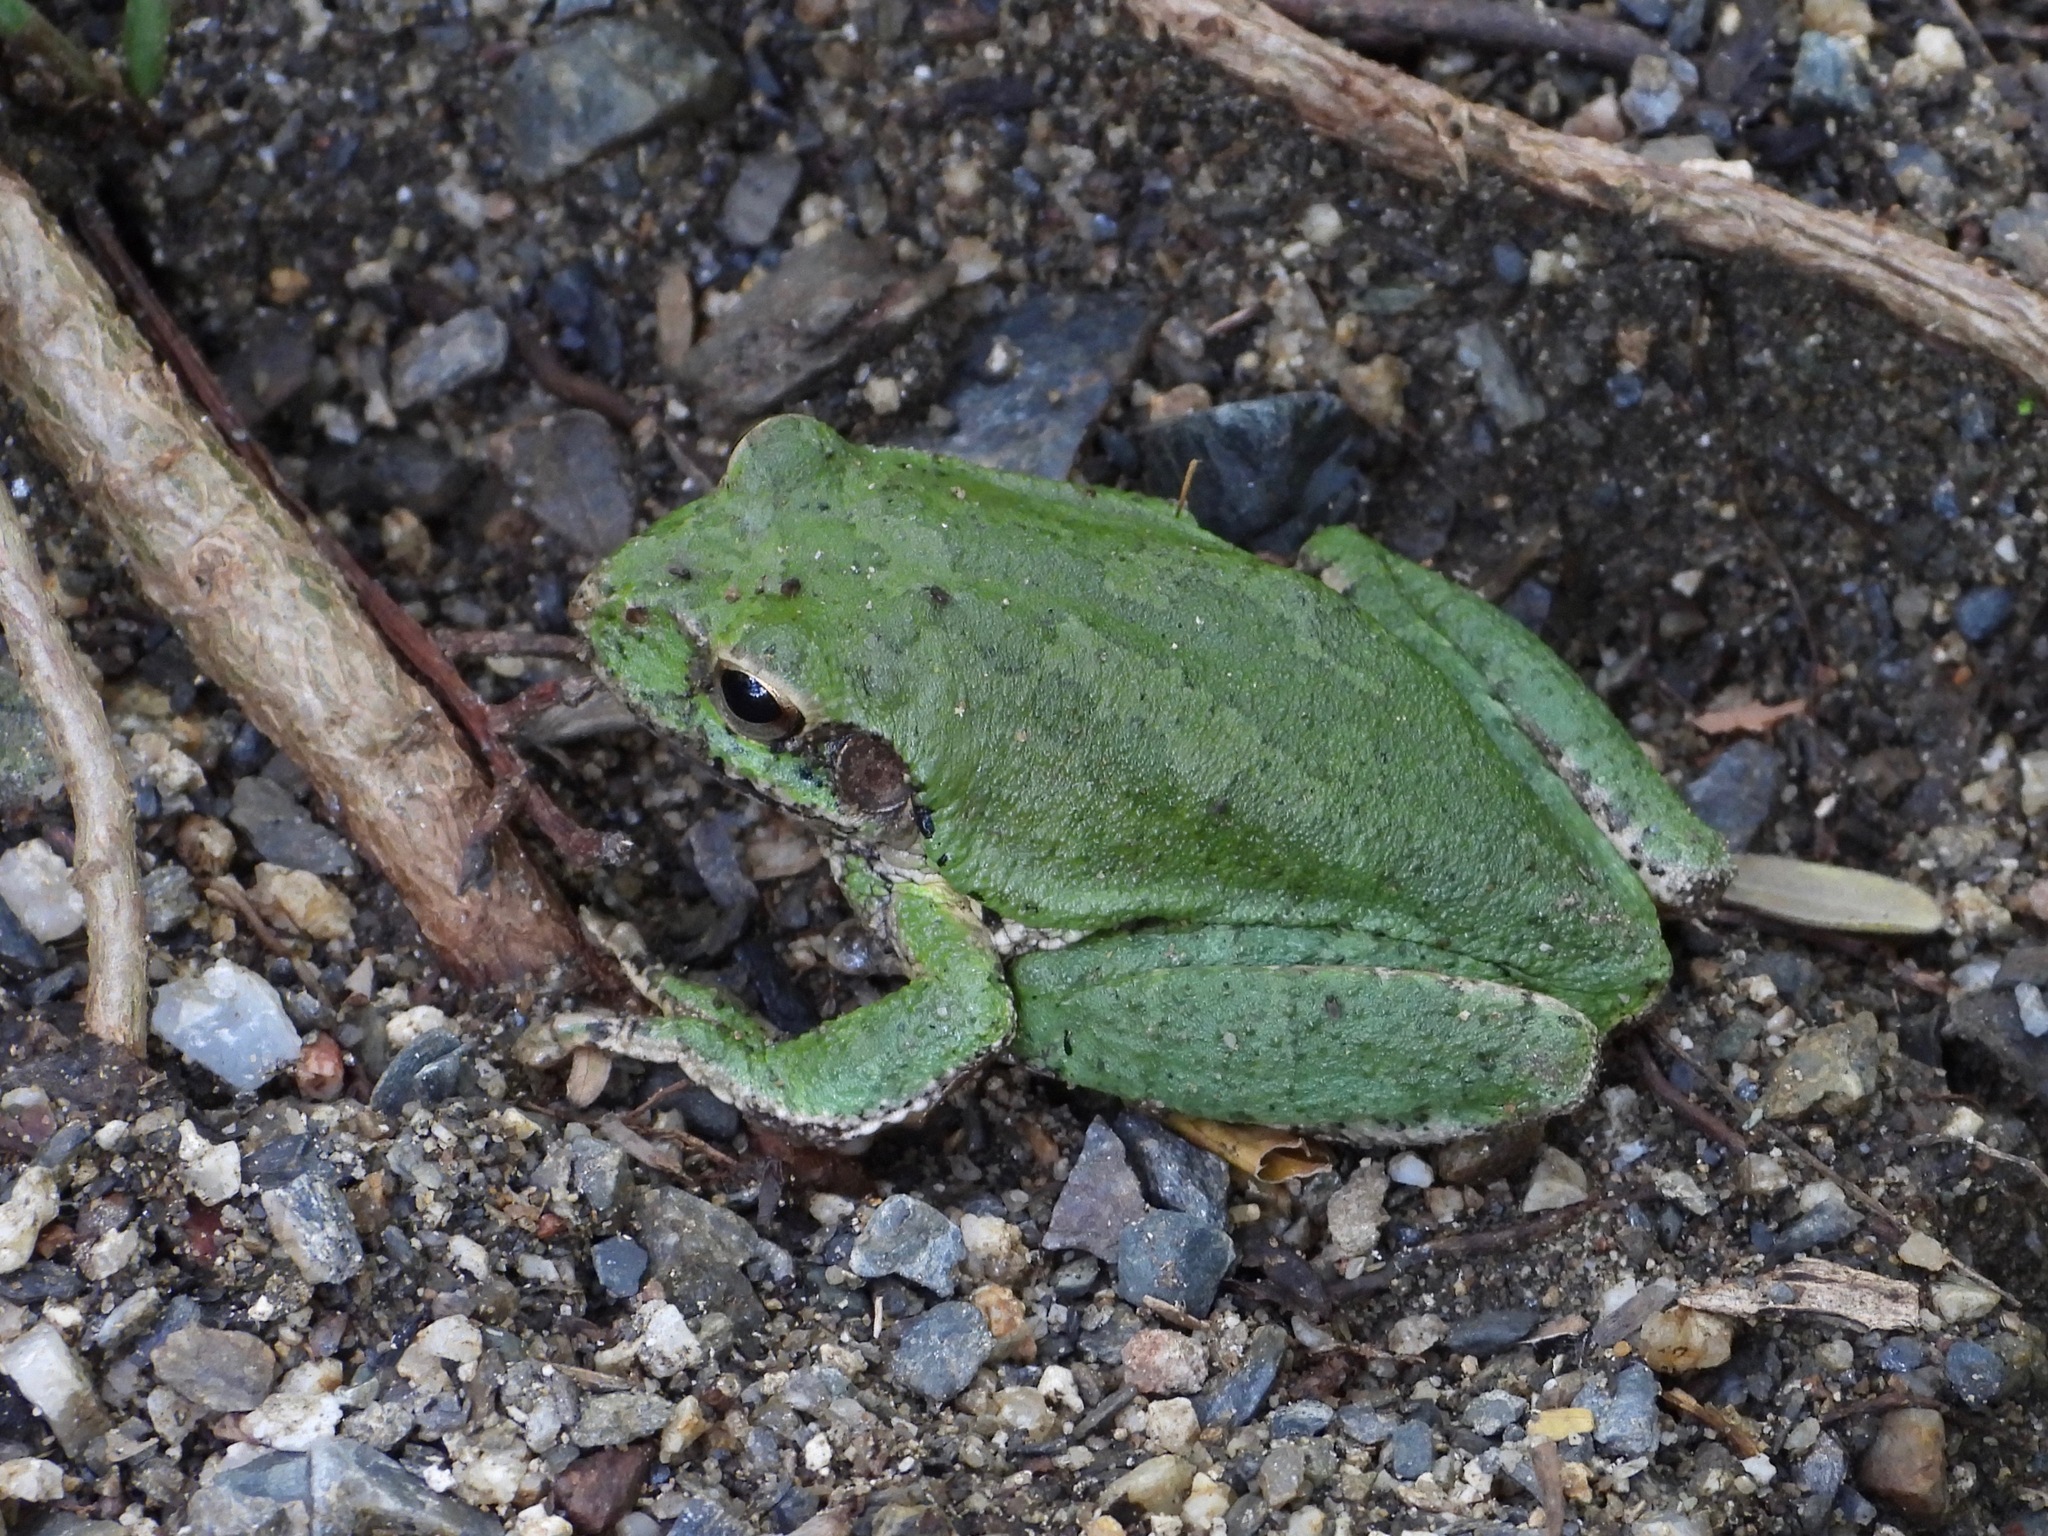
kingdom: Animalia
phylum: Chordata
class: Amphibia
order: Anura
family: Hylidae
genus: Smilisca
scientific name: Smilisca baudinii
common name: Mexican smilisca
